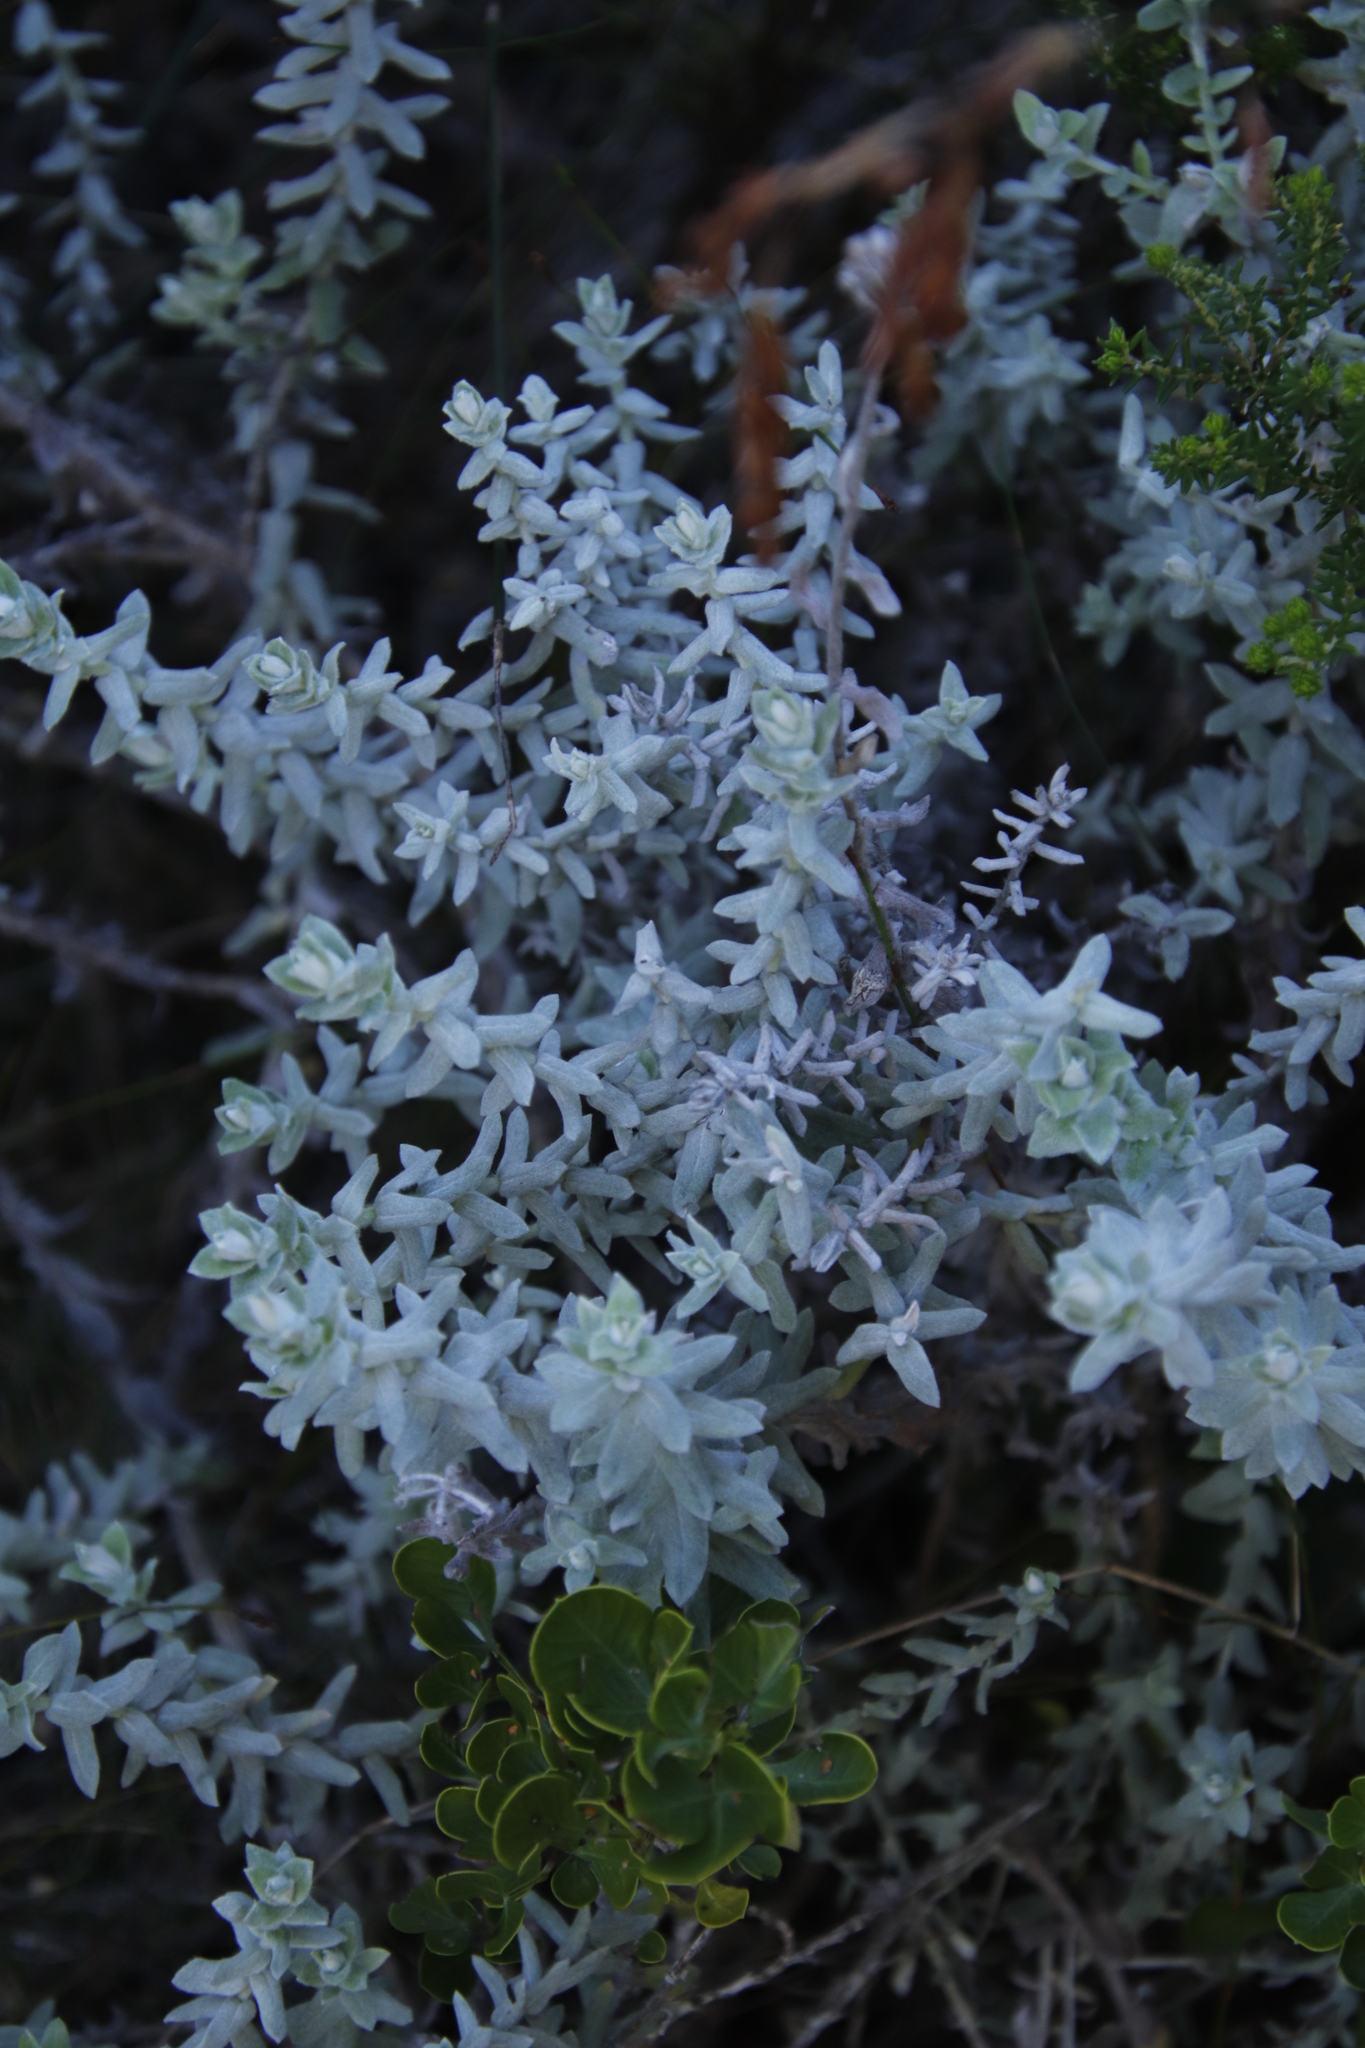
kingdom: Plantae
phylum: Tracheophyta
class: Magnoliopsida
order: Asterales
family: Asteraceae
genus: Helichrysum
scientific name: Helichrysum dasyanthum
